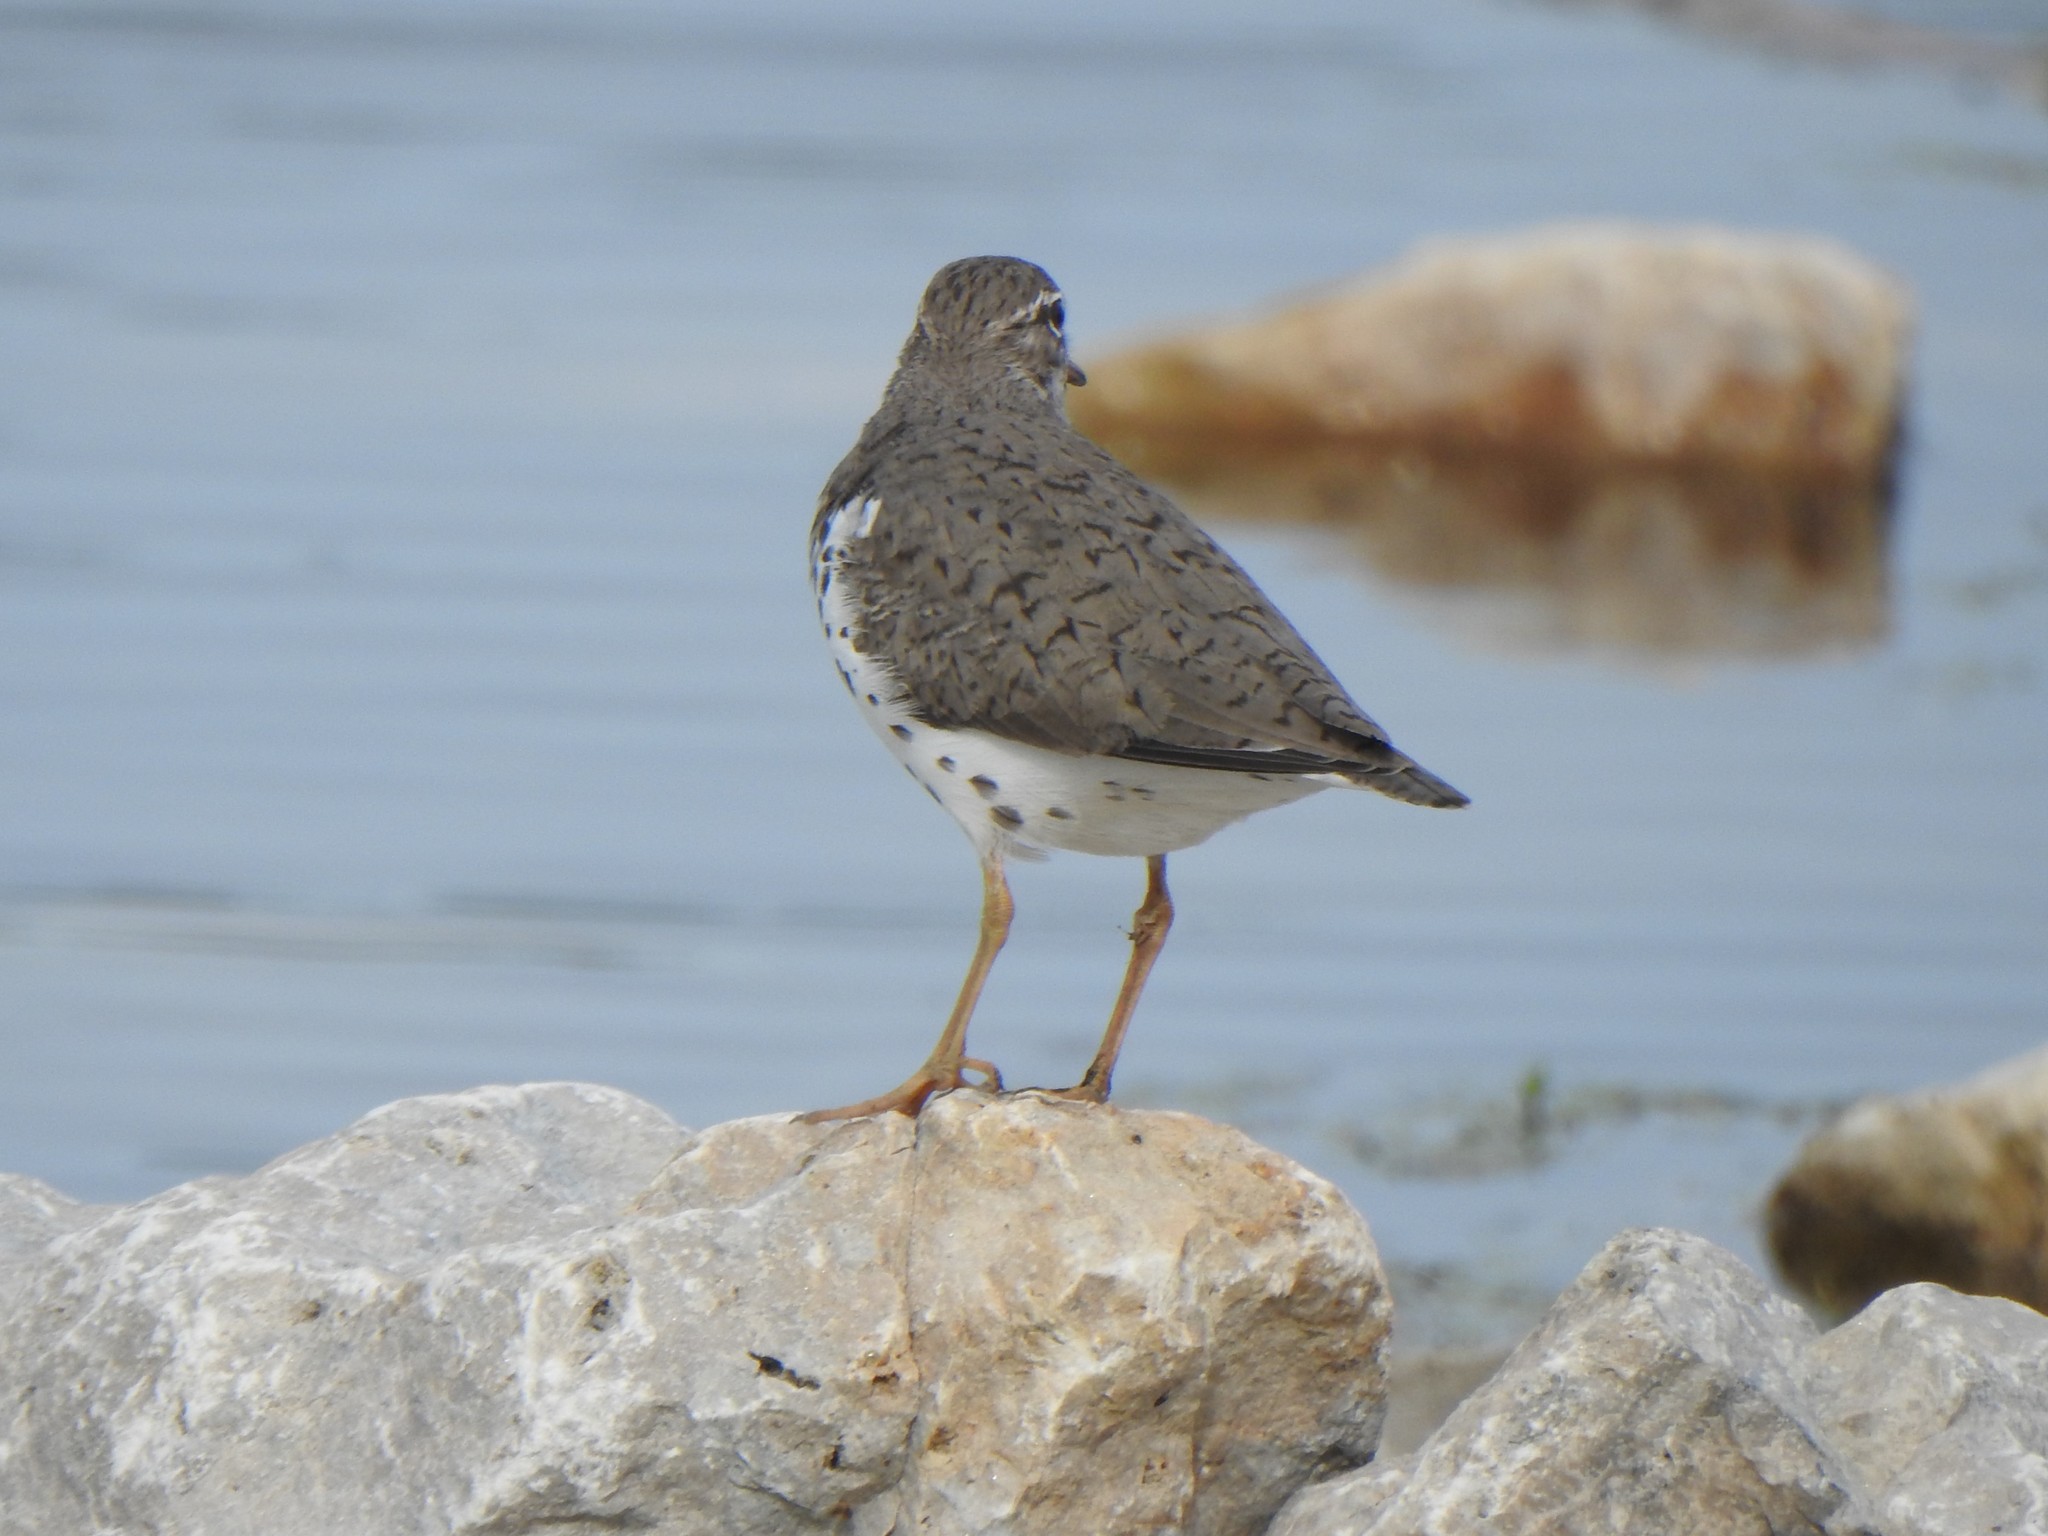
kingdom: Animalia
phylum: Chordata
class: Aves
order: Charadriiformes
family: Scolopacidae
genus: Actitis
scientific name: Actitis macularius
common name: Spotted sandpiper
